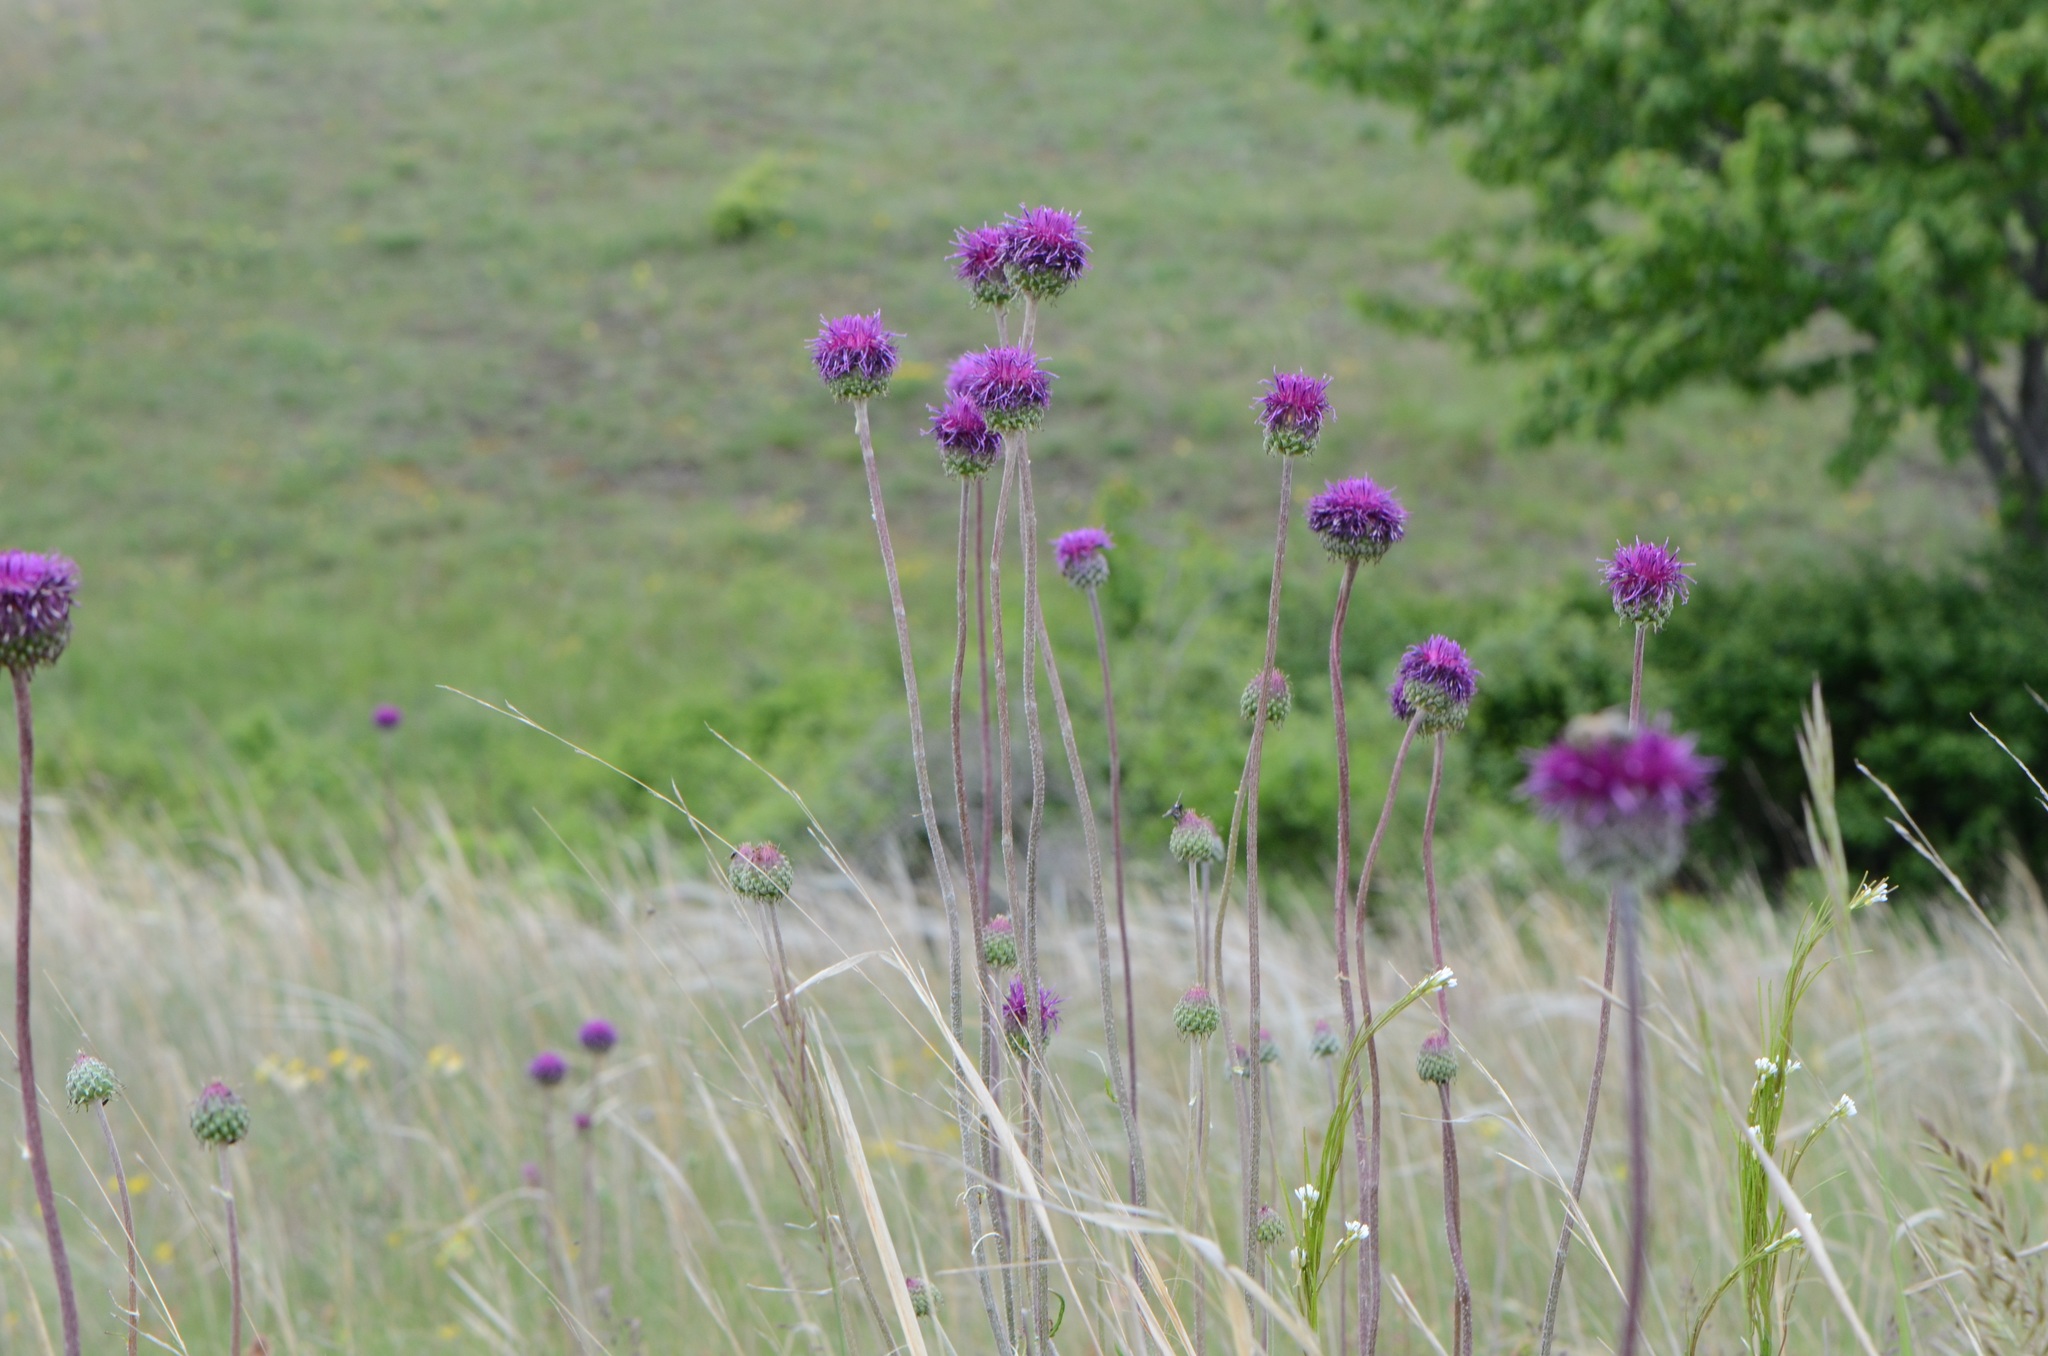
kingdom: Plantae
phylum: Tracheophyta
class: Magnoliopsida
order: Asterales
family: Asteraceae
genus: Jurinea
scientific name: Jurinea mollis
